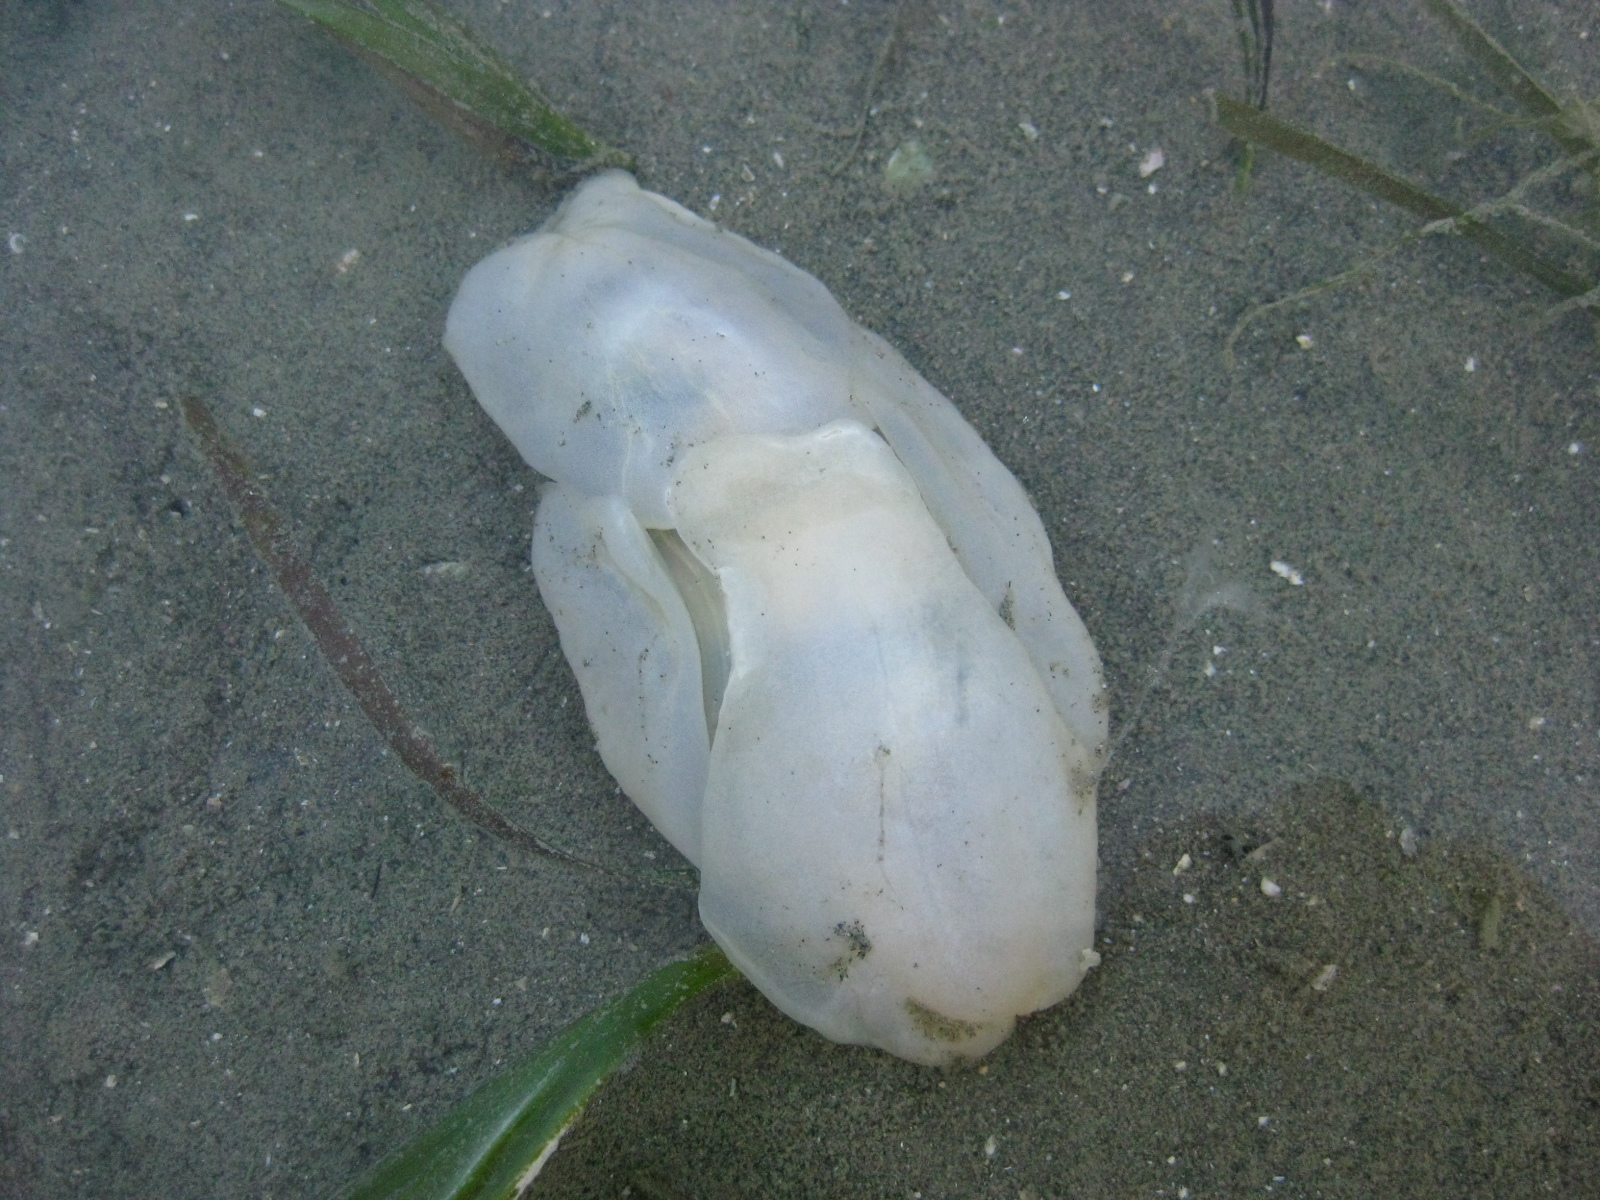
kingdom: Animalia
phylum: Mollusca
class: Gastropoda
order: Cephalaspidea
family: Philinidae
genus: Philine
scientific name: Philine angasi
